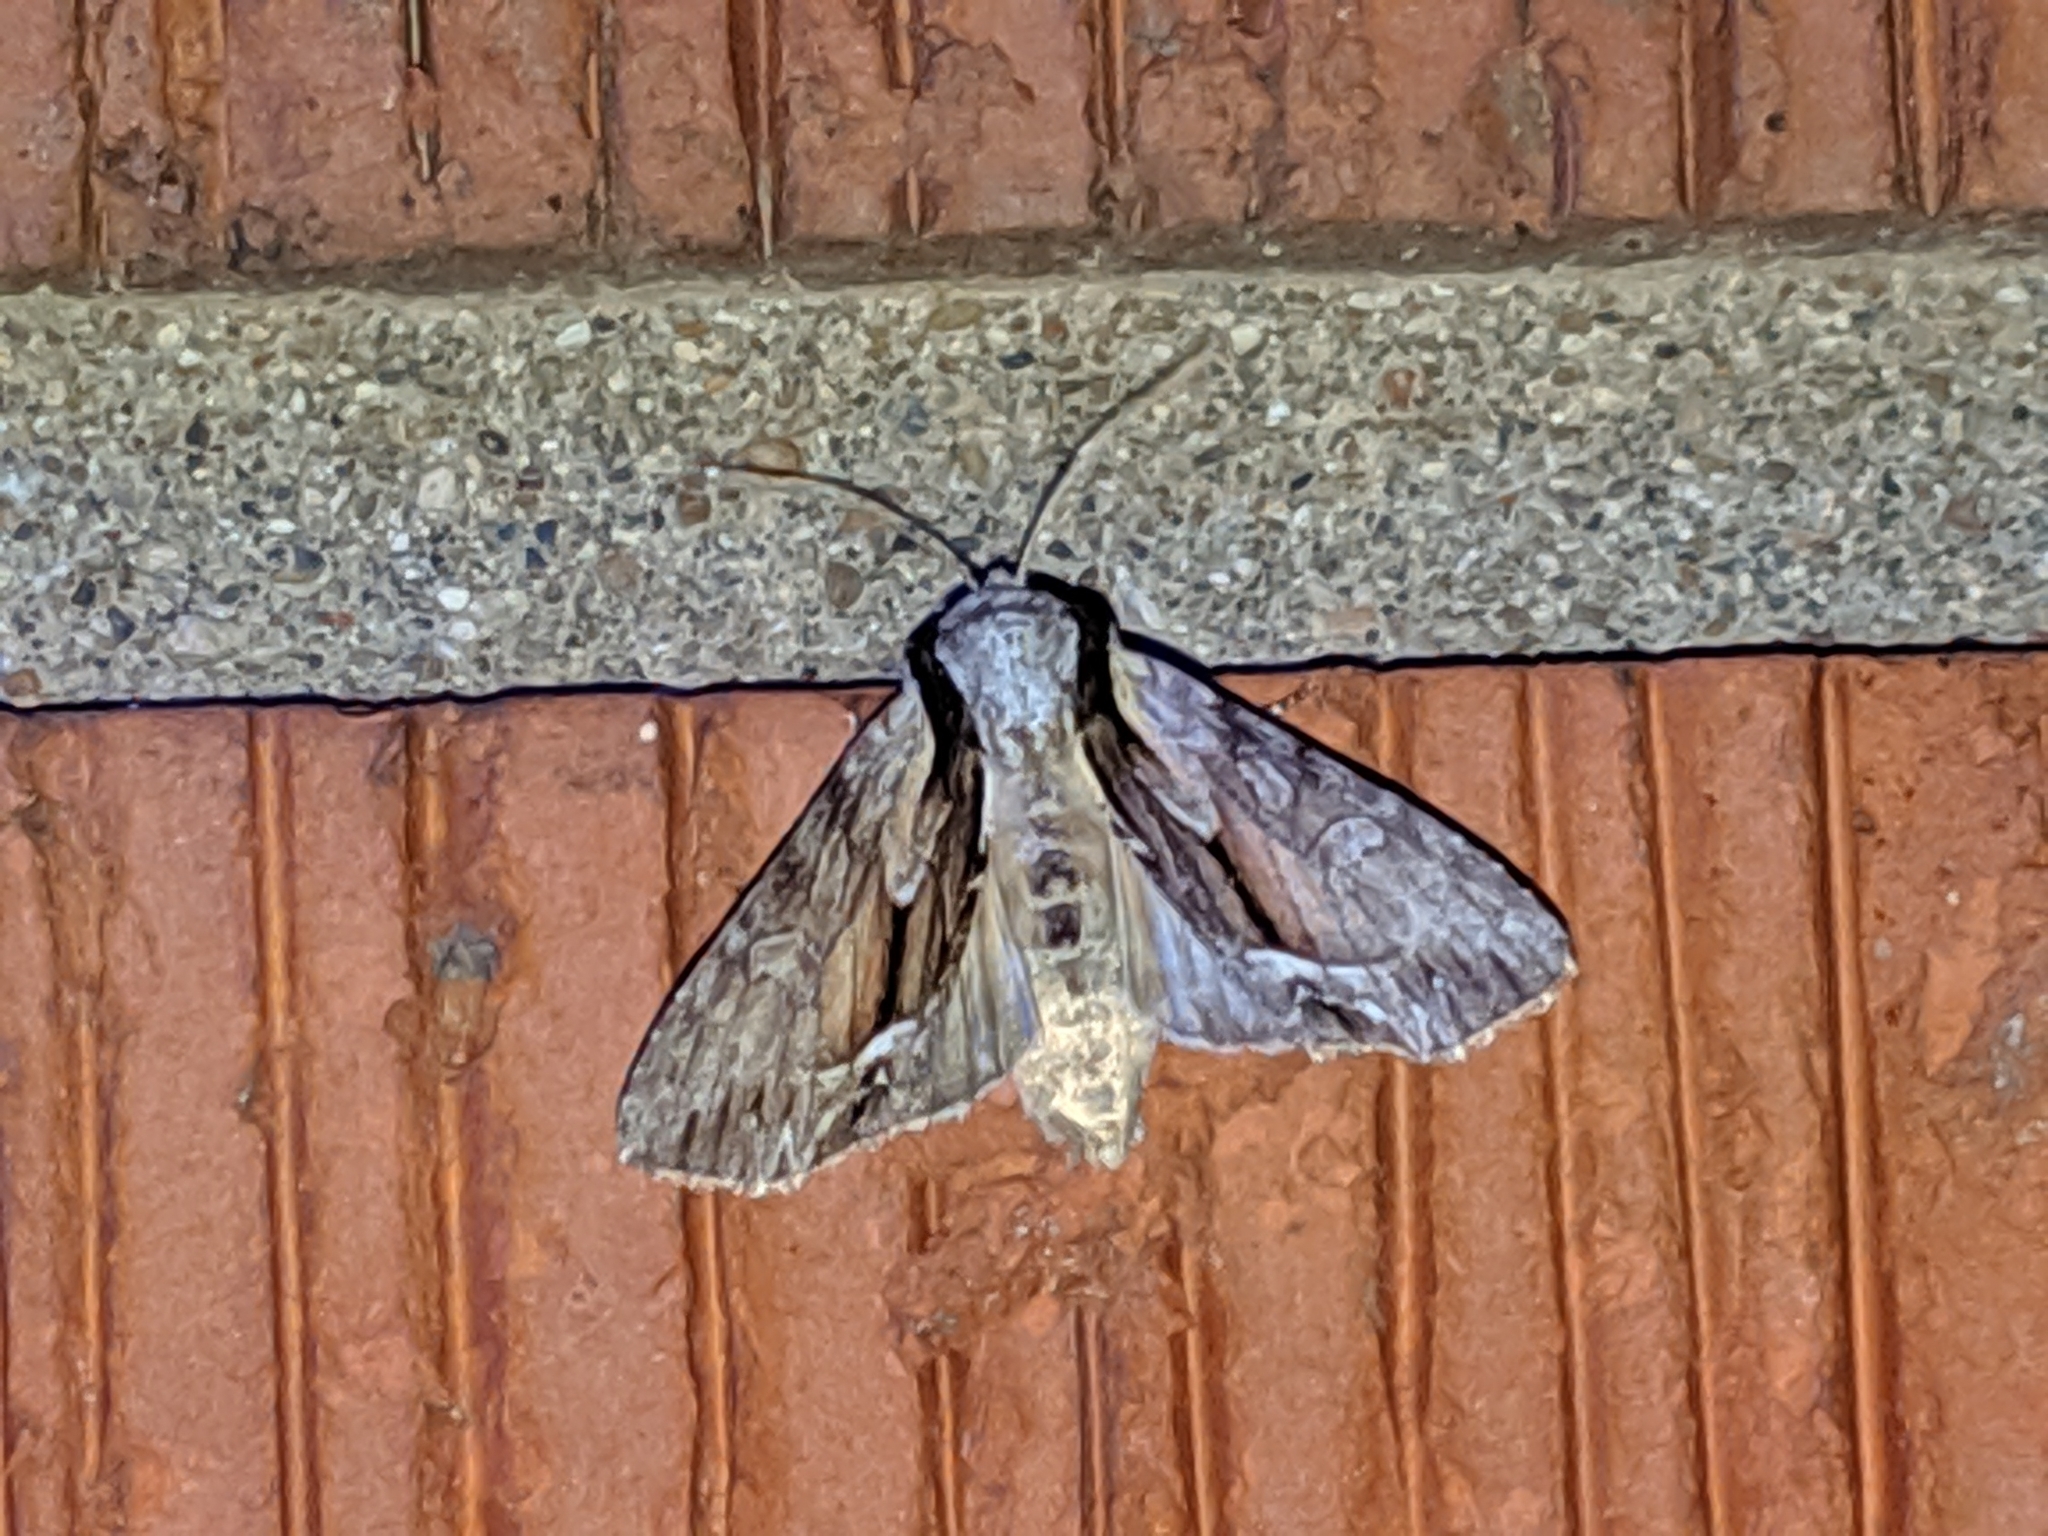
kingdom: Animalia
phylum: Arthropoda
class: Insecta
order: Lepidoptera
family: Noctuidae
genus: Hyppa
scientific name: Hyppa xylinoides
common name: Common hyppa moth
